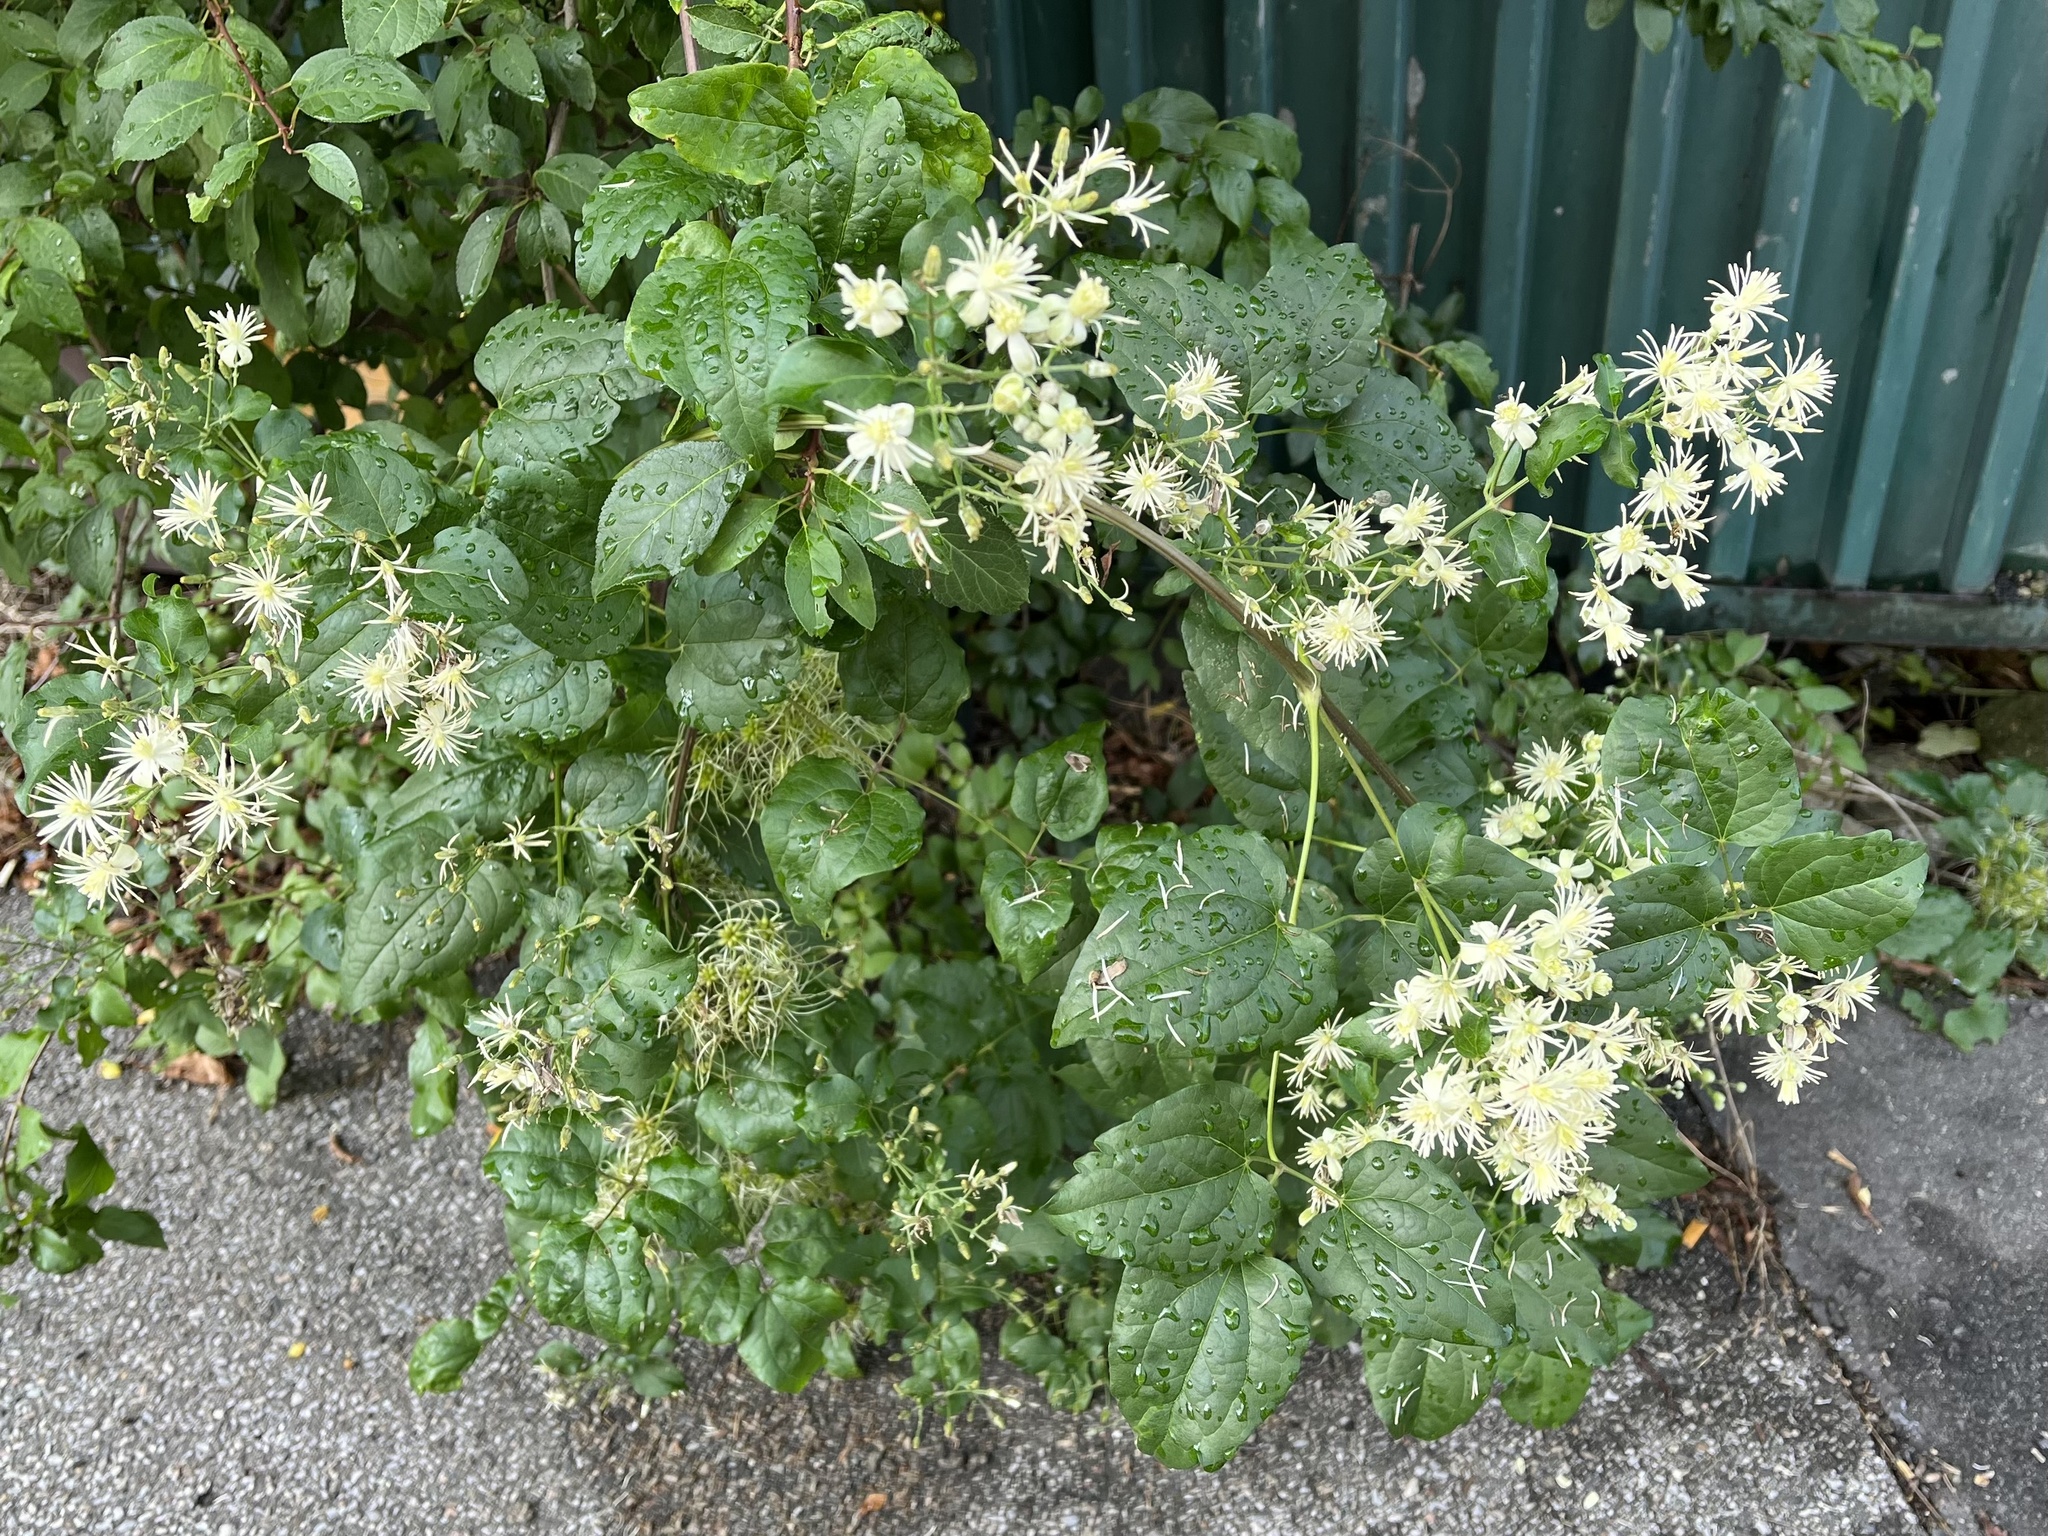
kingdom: Plantae
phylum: Tracheophyta
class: Magnoliopsida
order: Ranunculales
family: Ranunculaceae
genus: Clematis
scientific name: Clematis vitalba
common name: Evergreen clematis
